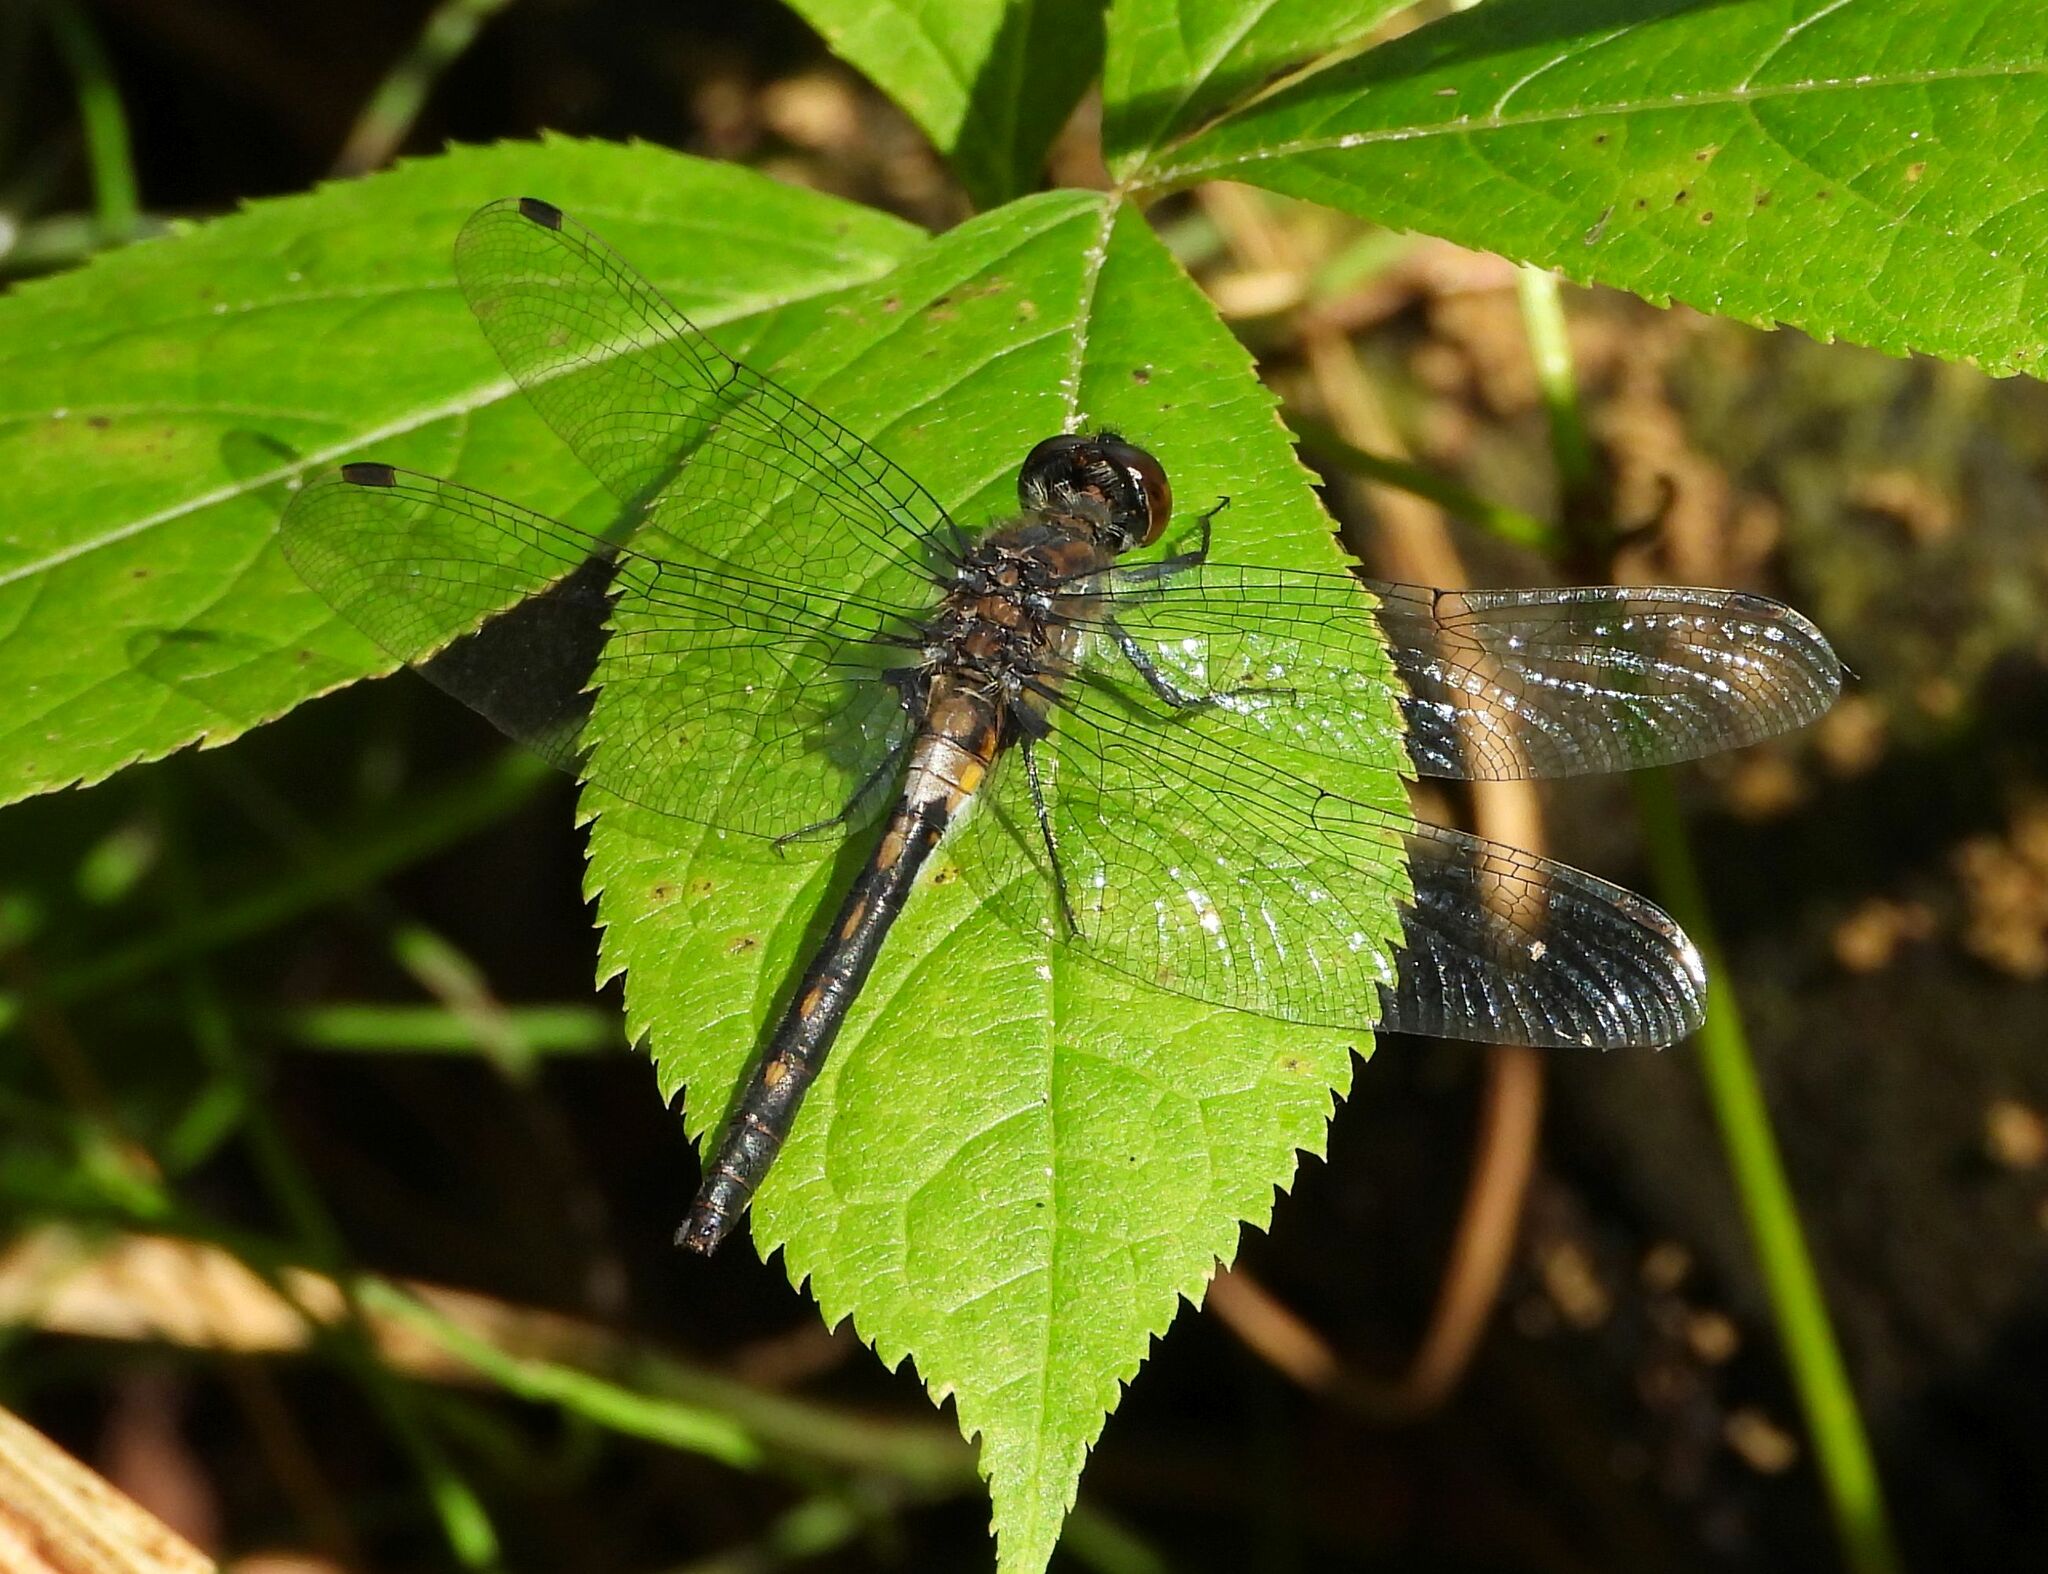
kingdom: Animalia
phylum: Arthropoda
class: Insecta
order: Odonata
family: Libellulidae
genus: Leucorrhinia
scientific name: Leucorrhinia proxima
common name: Belted whiteface
